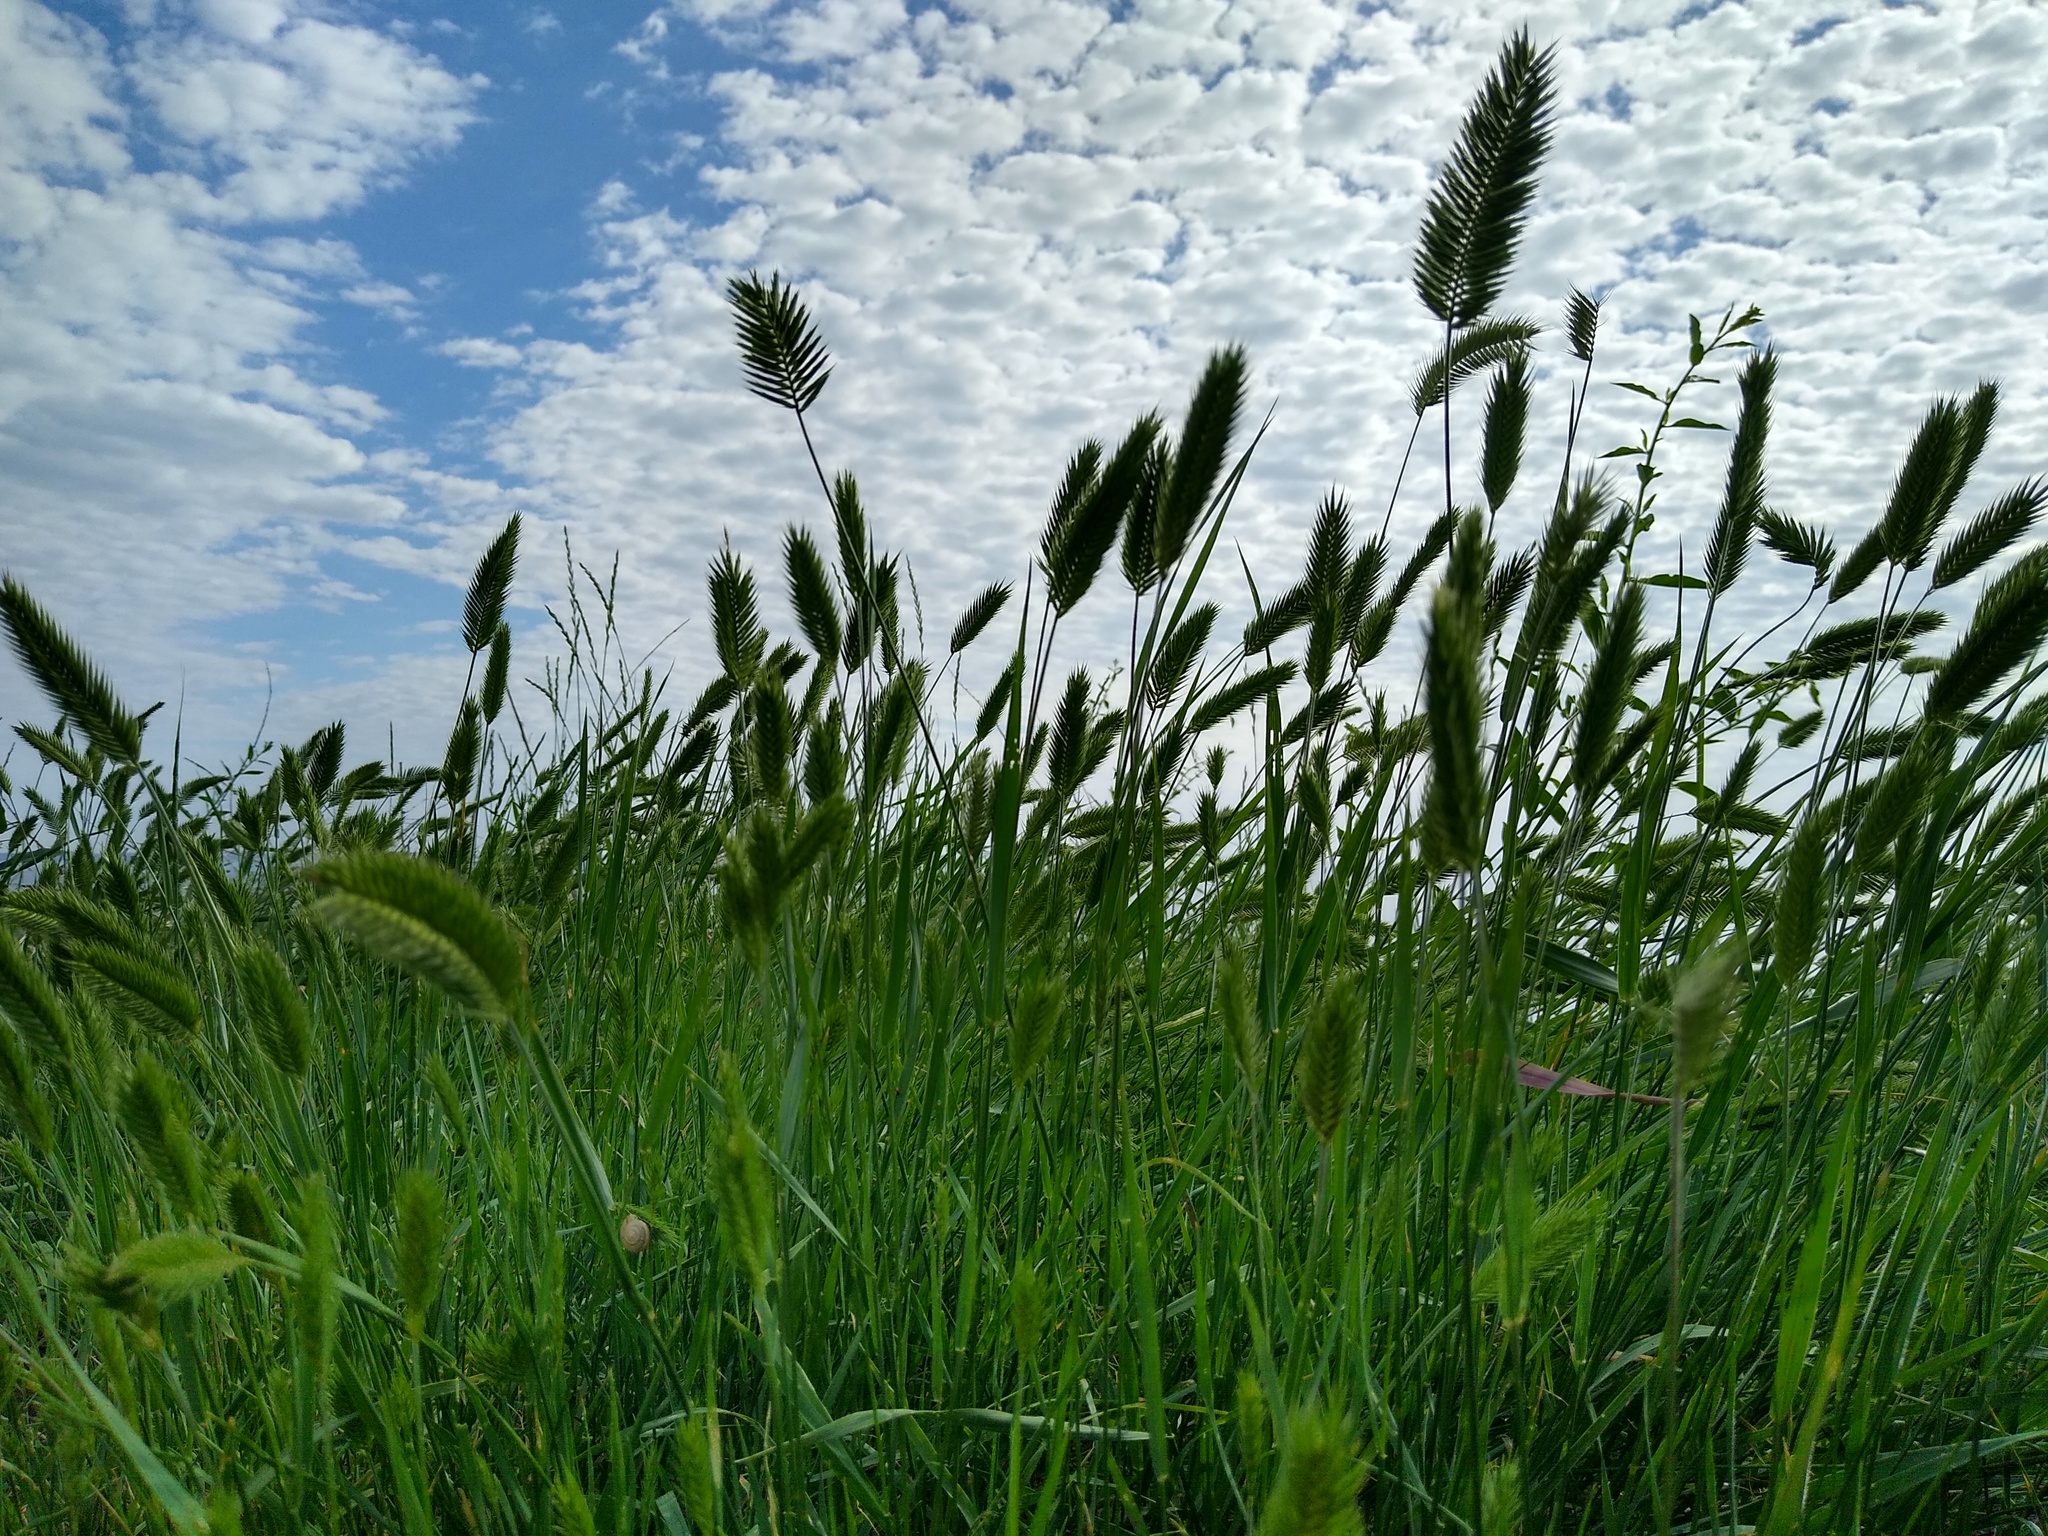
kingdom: Plantae
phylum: Tracheophyta
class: Liliopsida
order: Poales
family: Poaceae
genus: Agropyron
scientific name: Agropyron cristatum
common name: Crested wheatgrass
